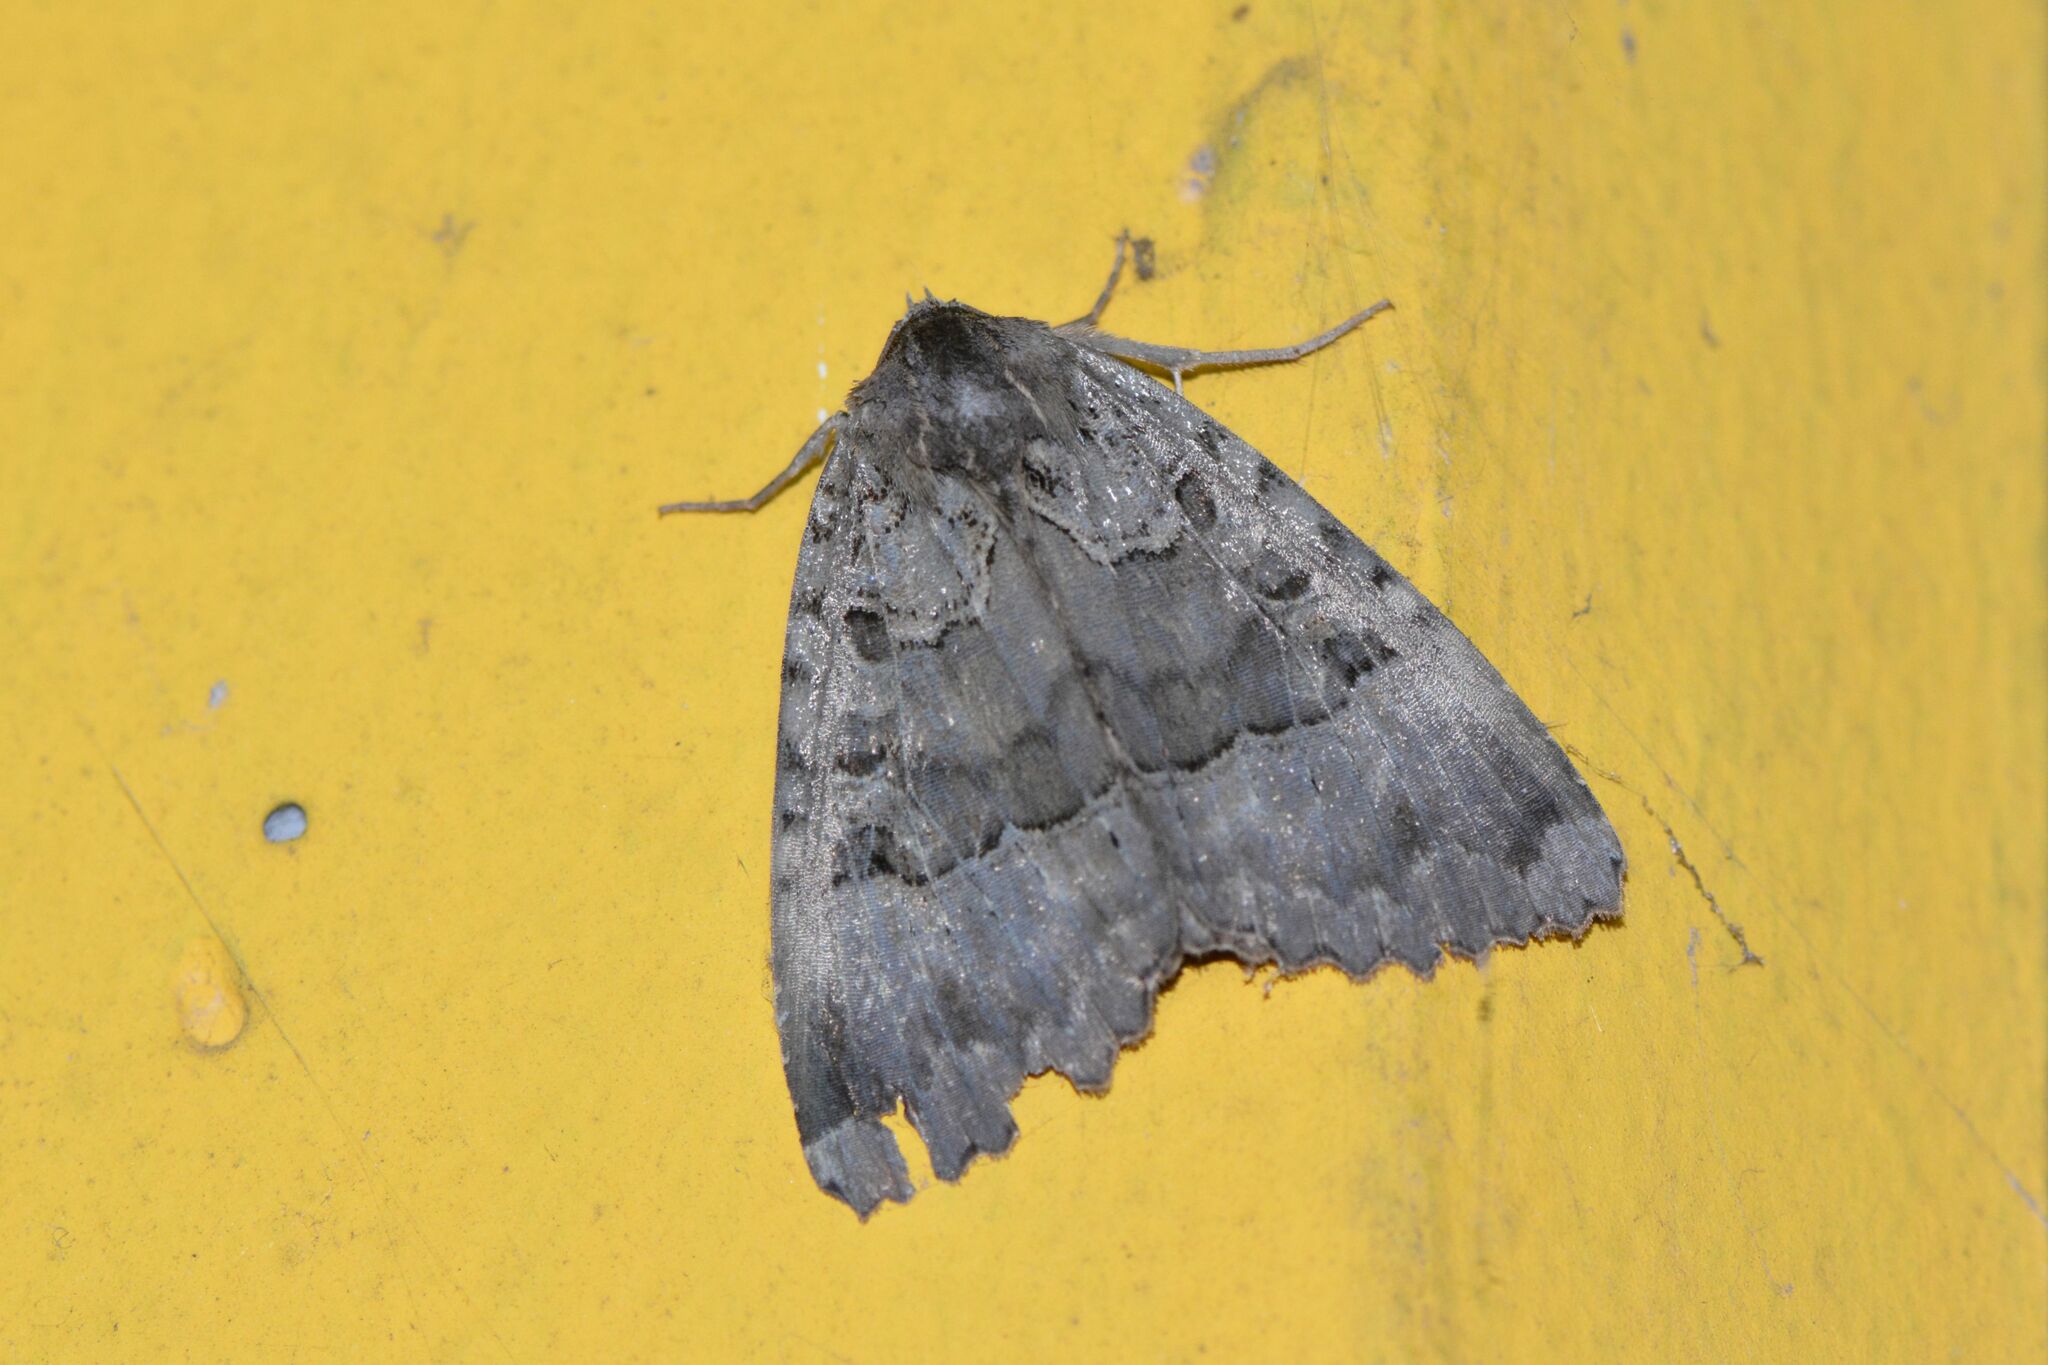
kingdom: Animalia
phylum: Arthropoda
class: Insecta
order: Lepidoptera
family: Noctuidae
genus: Mormo
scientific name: Mormo maura
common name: Old lady
